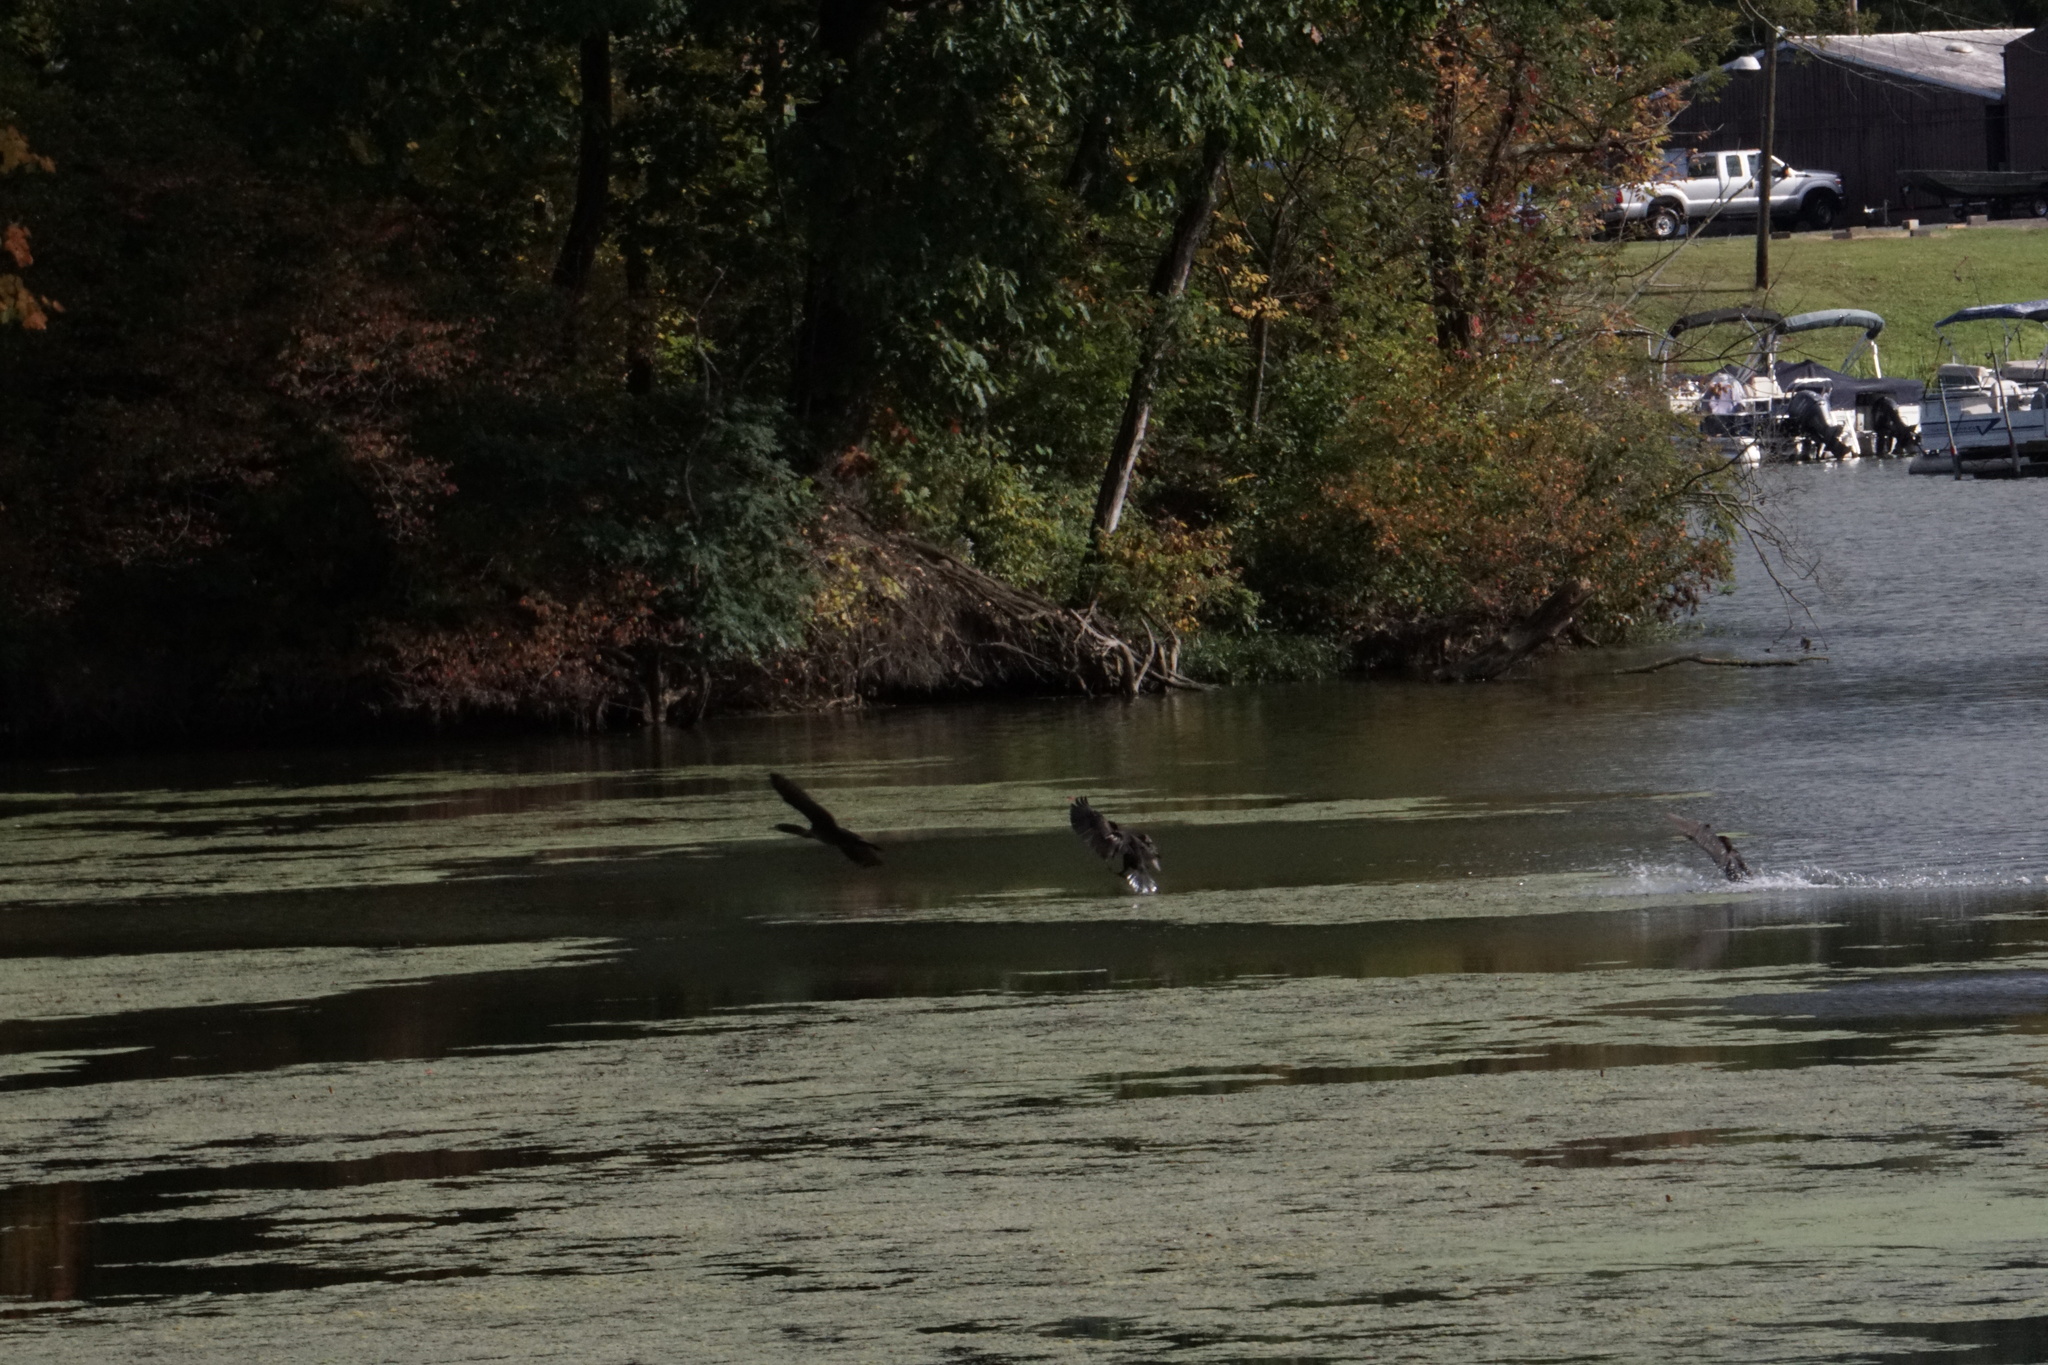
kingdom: Animalia
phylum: Chordata
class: Aves
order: Anseriformes
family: Anatidae
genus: Branta
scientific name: Branta canadensis
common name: Canada goose
